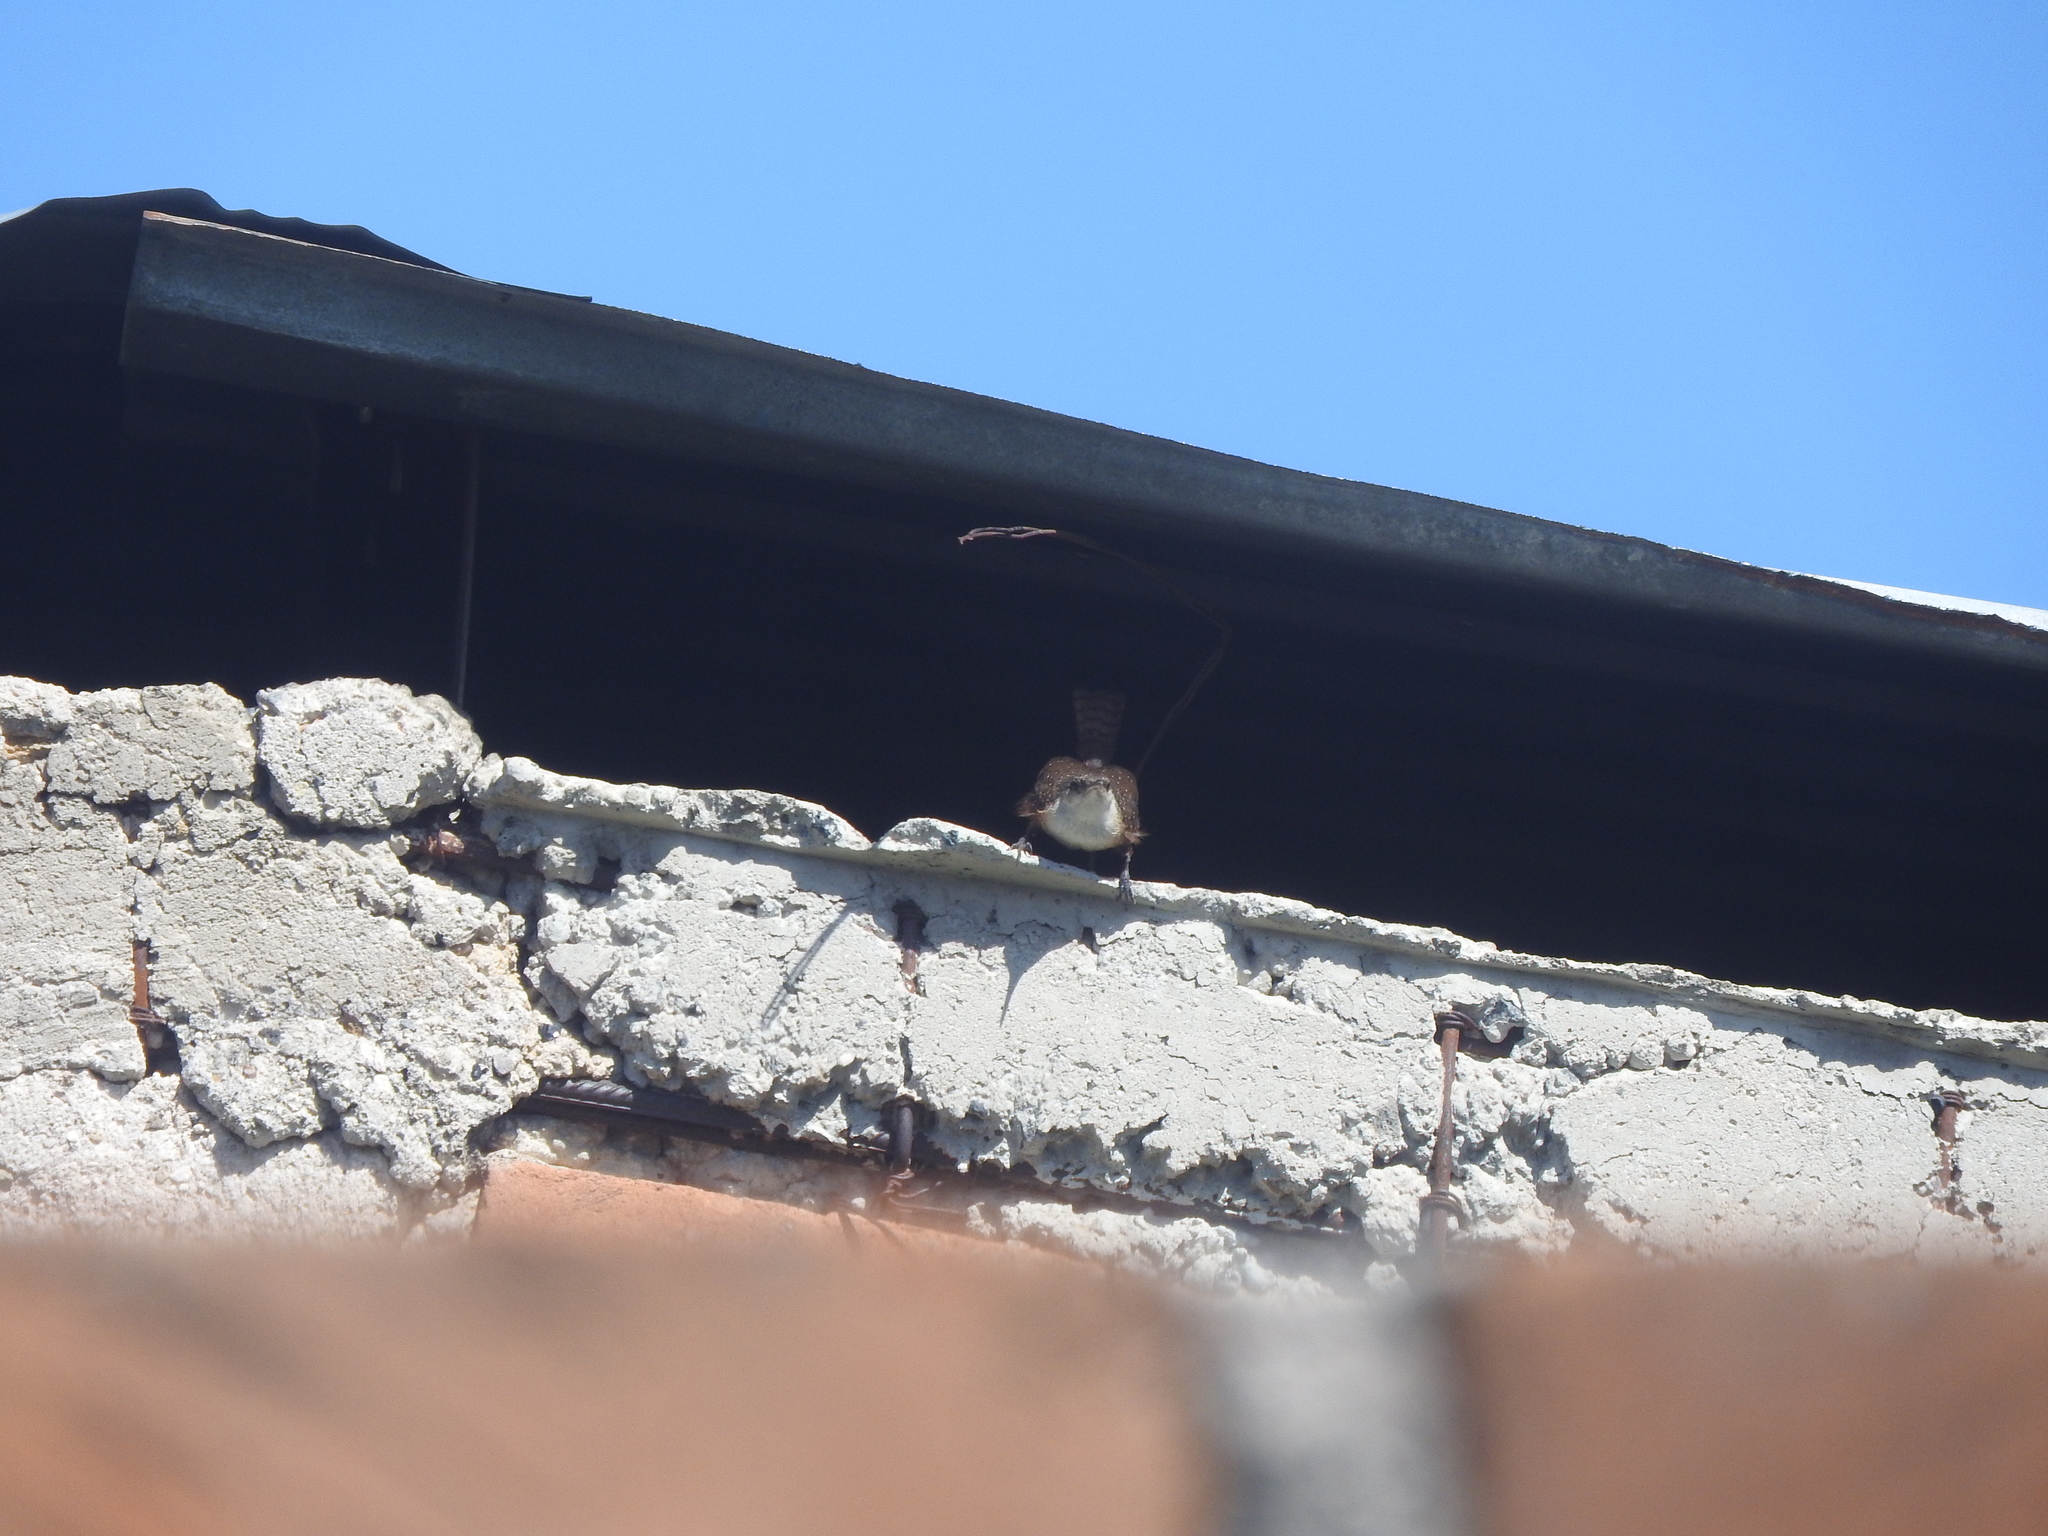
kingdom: Animalia
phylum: Chordata
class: Aves
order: Passeriformes
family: Troglodytidae
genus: Catherpes
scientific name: Catherpes mexicanus
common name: Canyon wren
